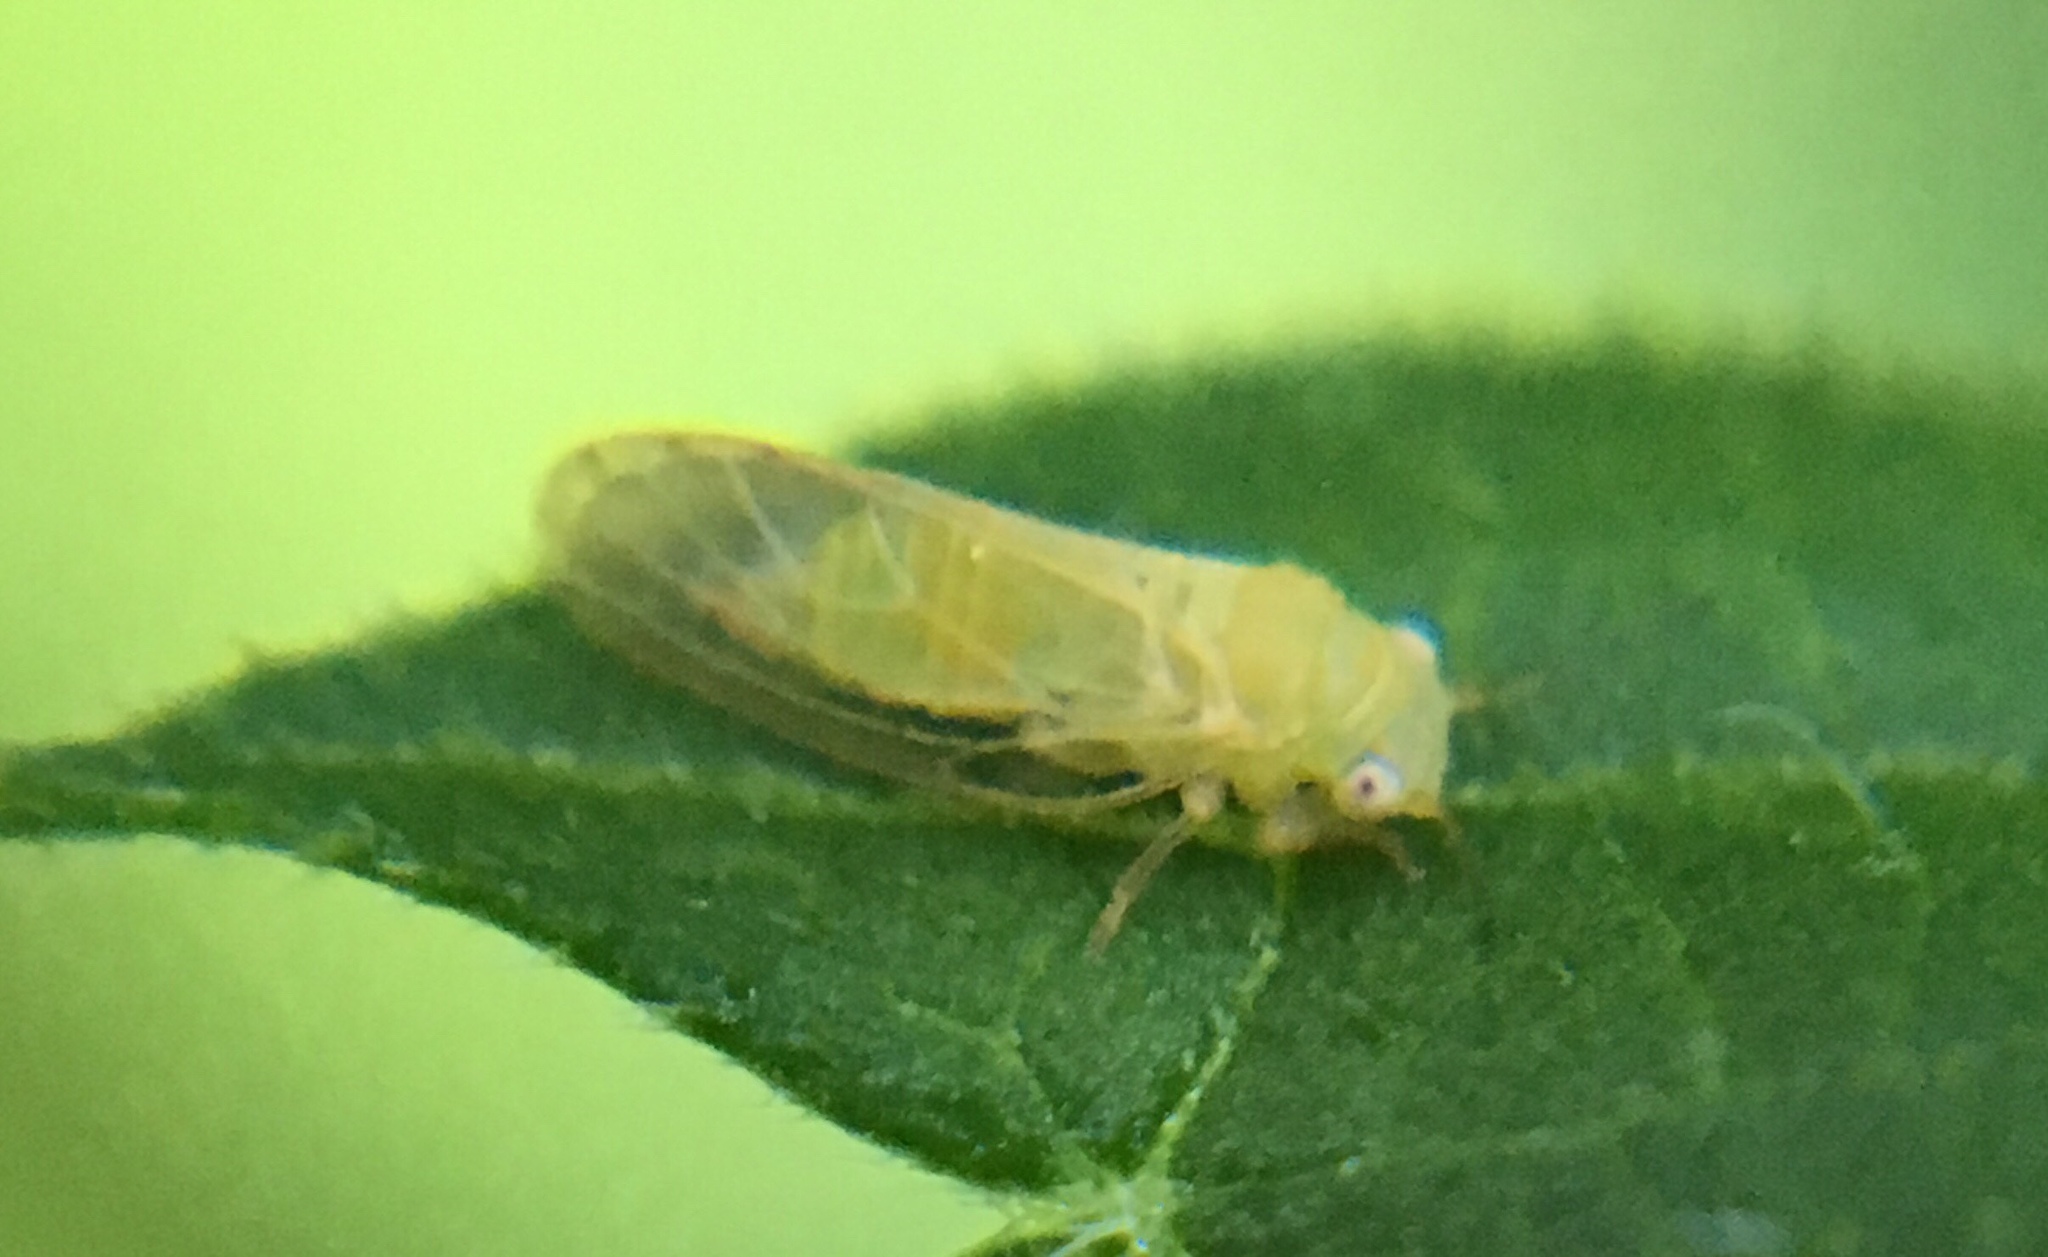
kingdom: Animalia
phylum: Arthropoda
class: Insecta
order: Hemiptera
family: Psyllidae
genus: Acizzia
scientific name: Acizzia jamatonica
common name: Mimosa psyllid
